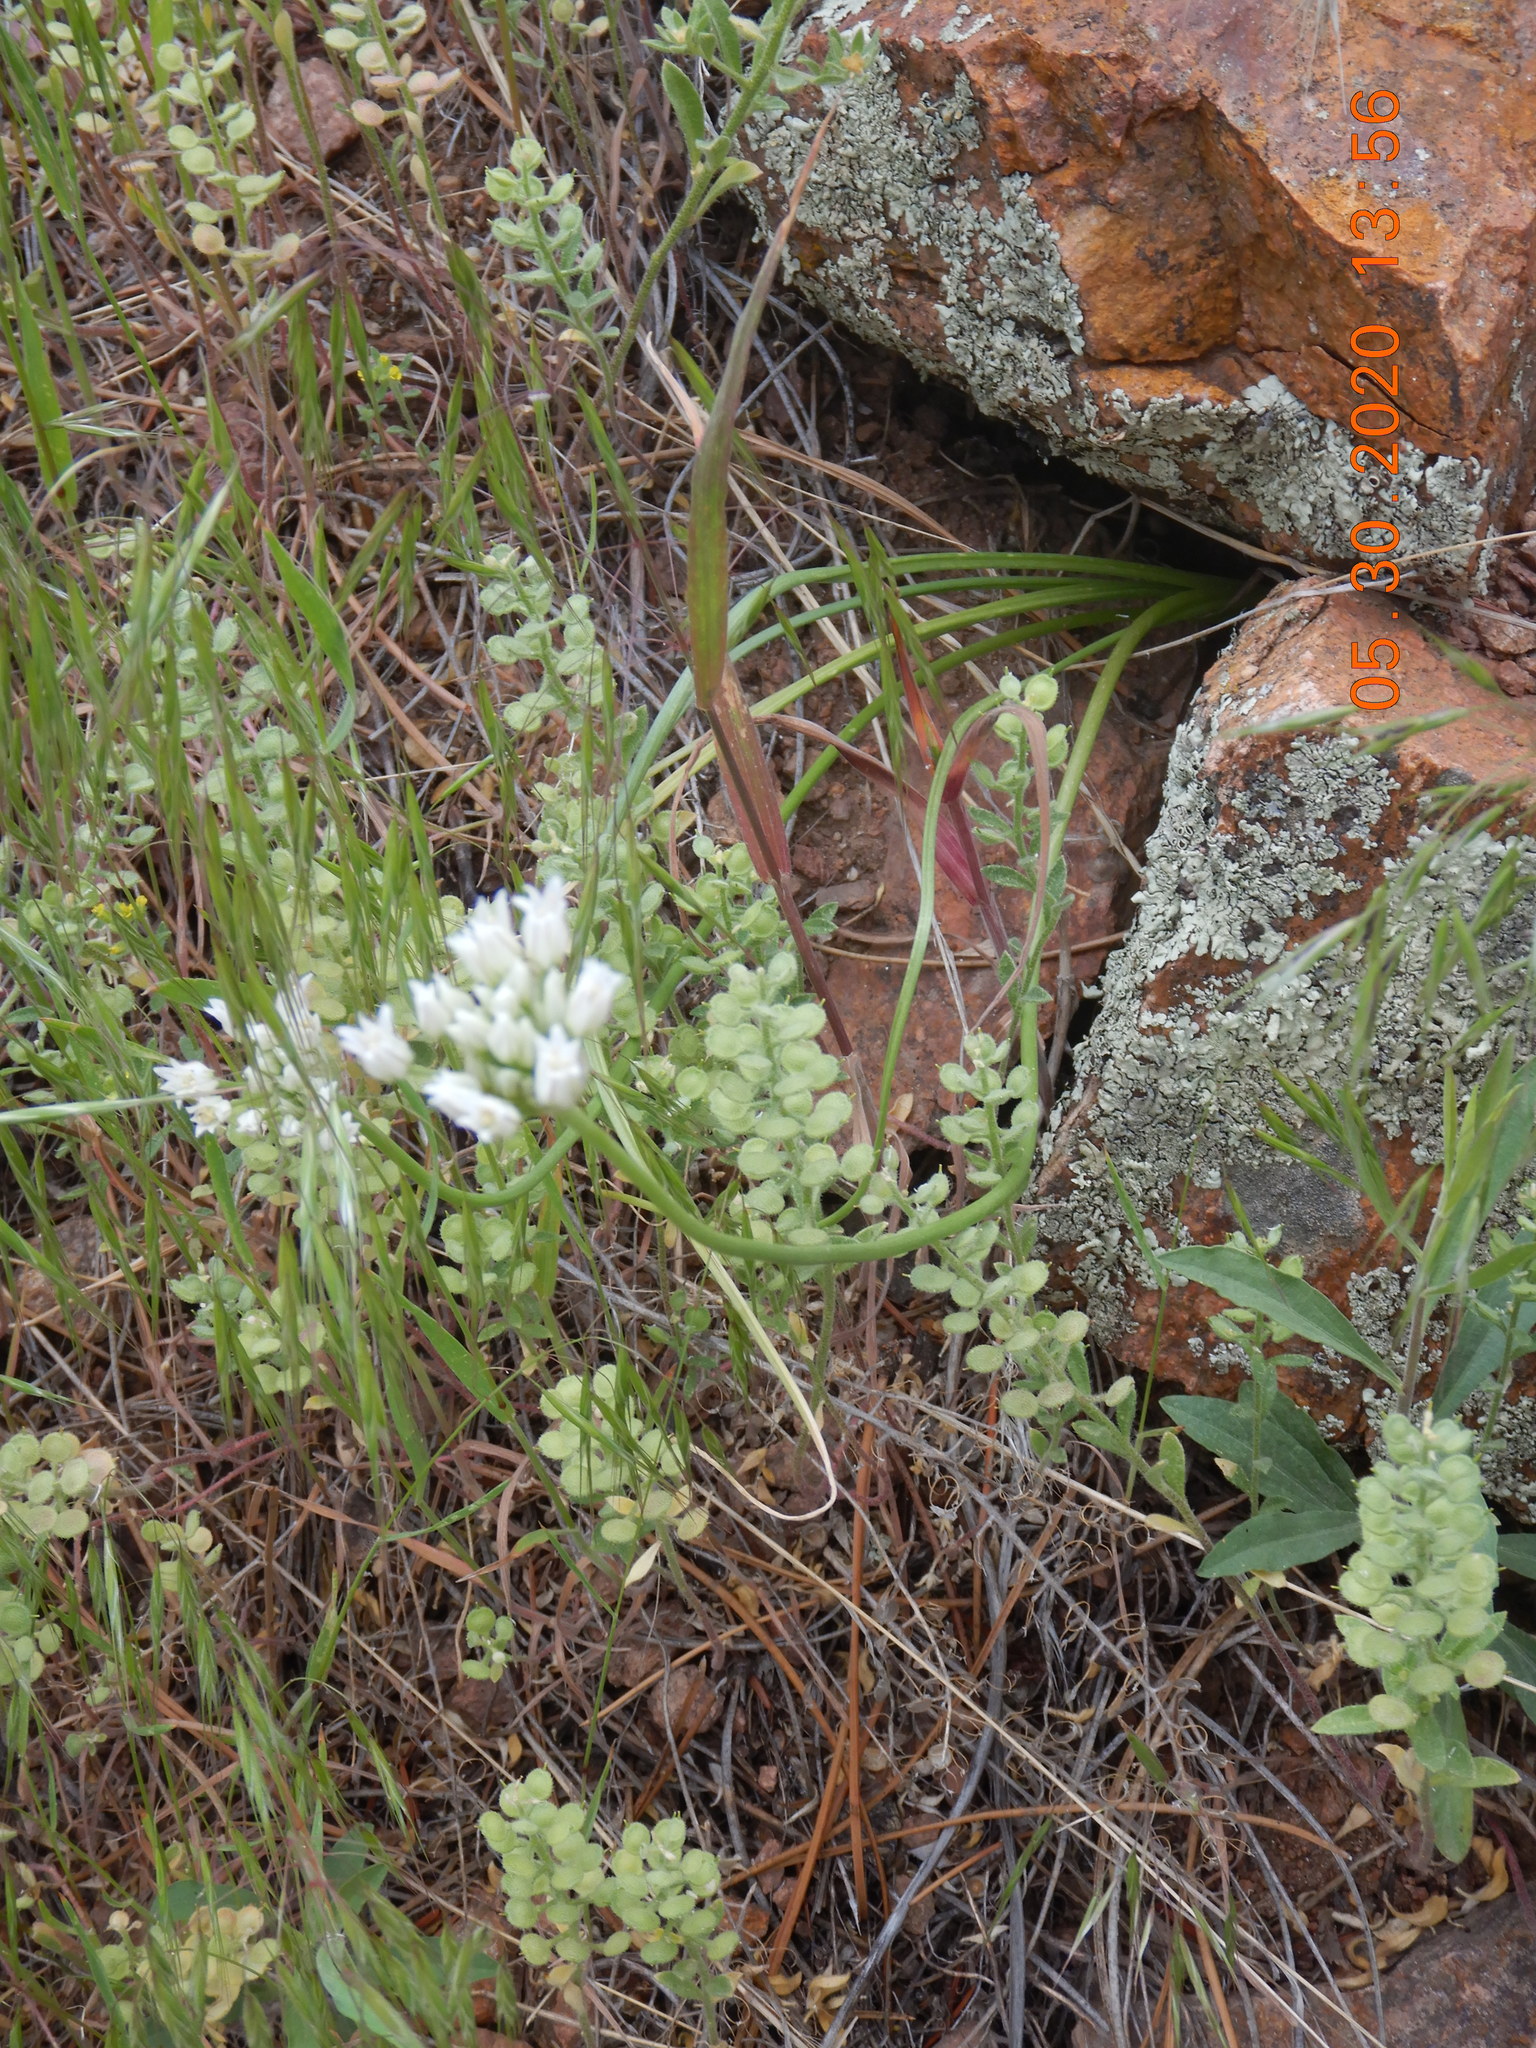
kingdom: Plantae
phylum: Tracheophyta
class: Liliopsida
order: Asparagales
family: Amaryllidaceae
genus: Allium
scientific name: Allium textile
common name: Prairie onion
